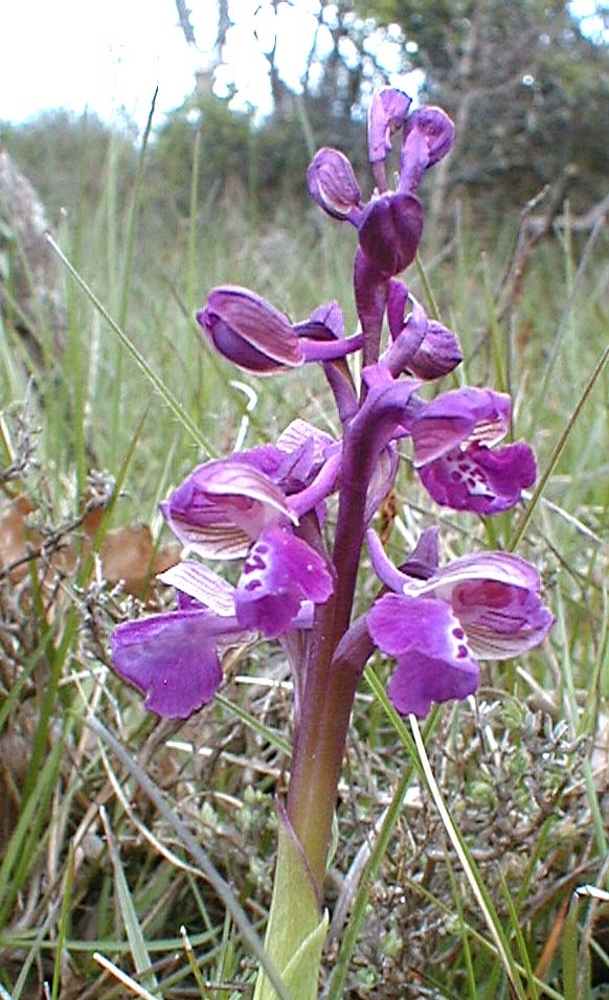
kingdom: Plantae
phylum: Tracheophyta
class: Liliopsida
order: Asparagales
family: Orchidaceae
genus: Anacamptis
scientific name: Anacamptis morio
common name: Green-winged orchid
